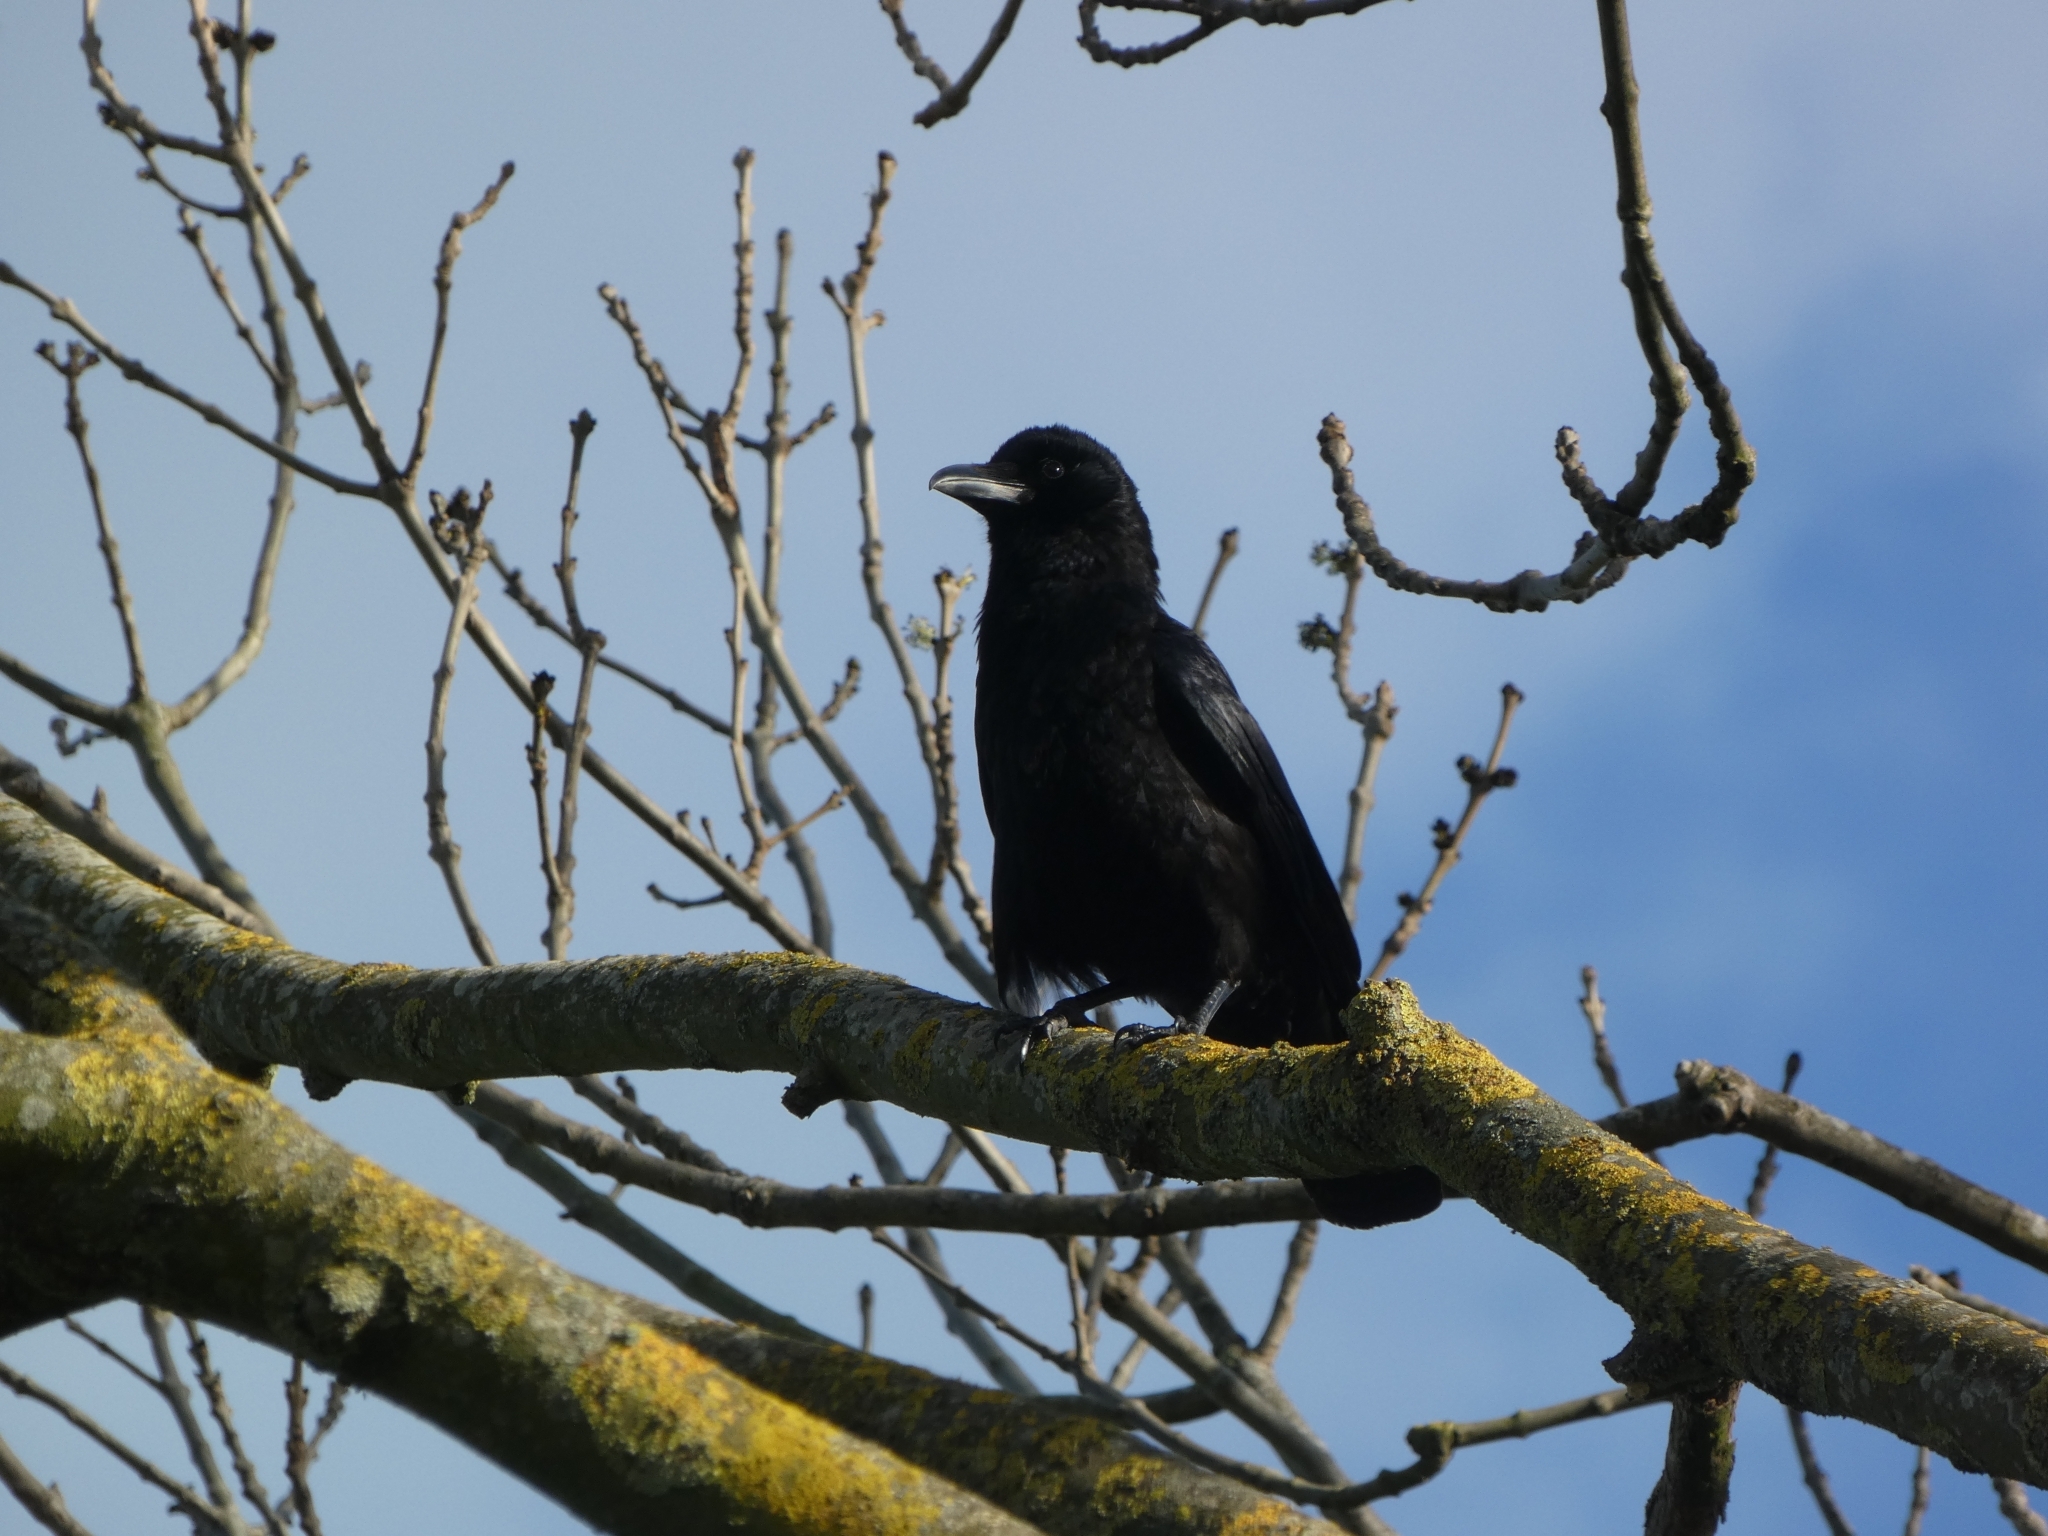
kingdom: Animalia
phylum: Chordata
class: Aves
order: Passeriformes
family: Corvidae
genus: Corvus
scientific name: Corvus corone
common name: Carrion crow
